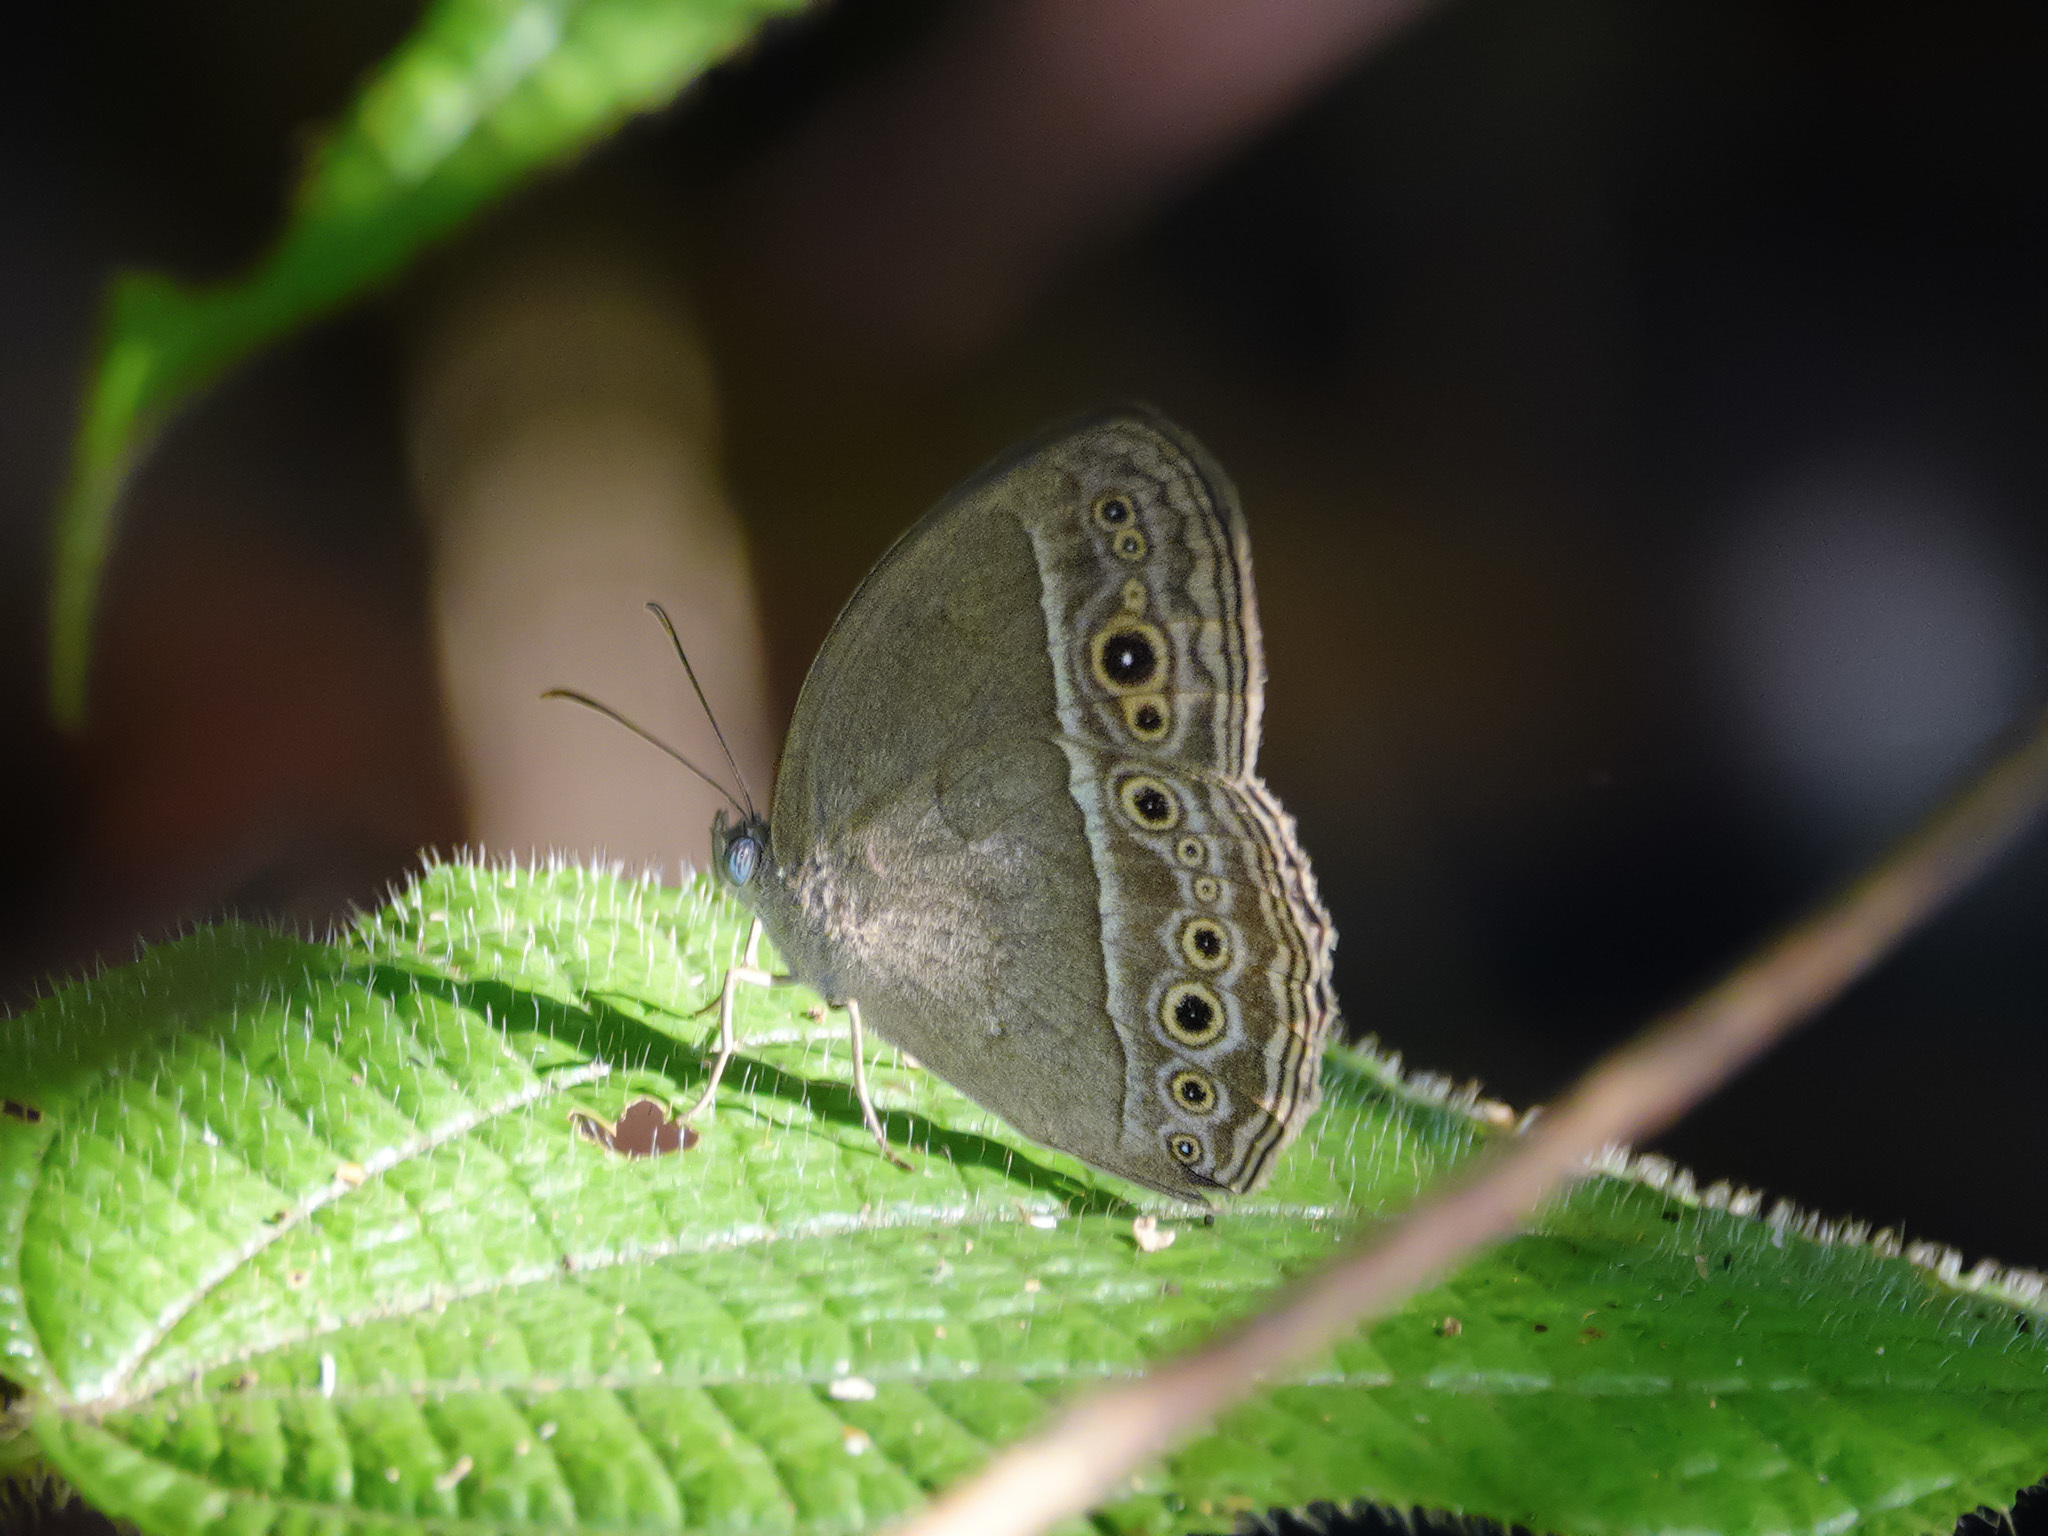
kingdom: Animalia
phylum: Arthropoda
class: Insecta
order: Lepidoptera
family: Nymphalidae
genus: Mycalesis
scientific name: Mycalesis perseoides
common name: Burmese bushbrown
